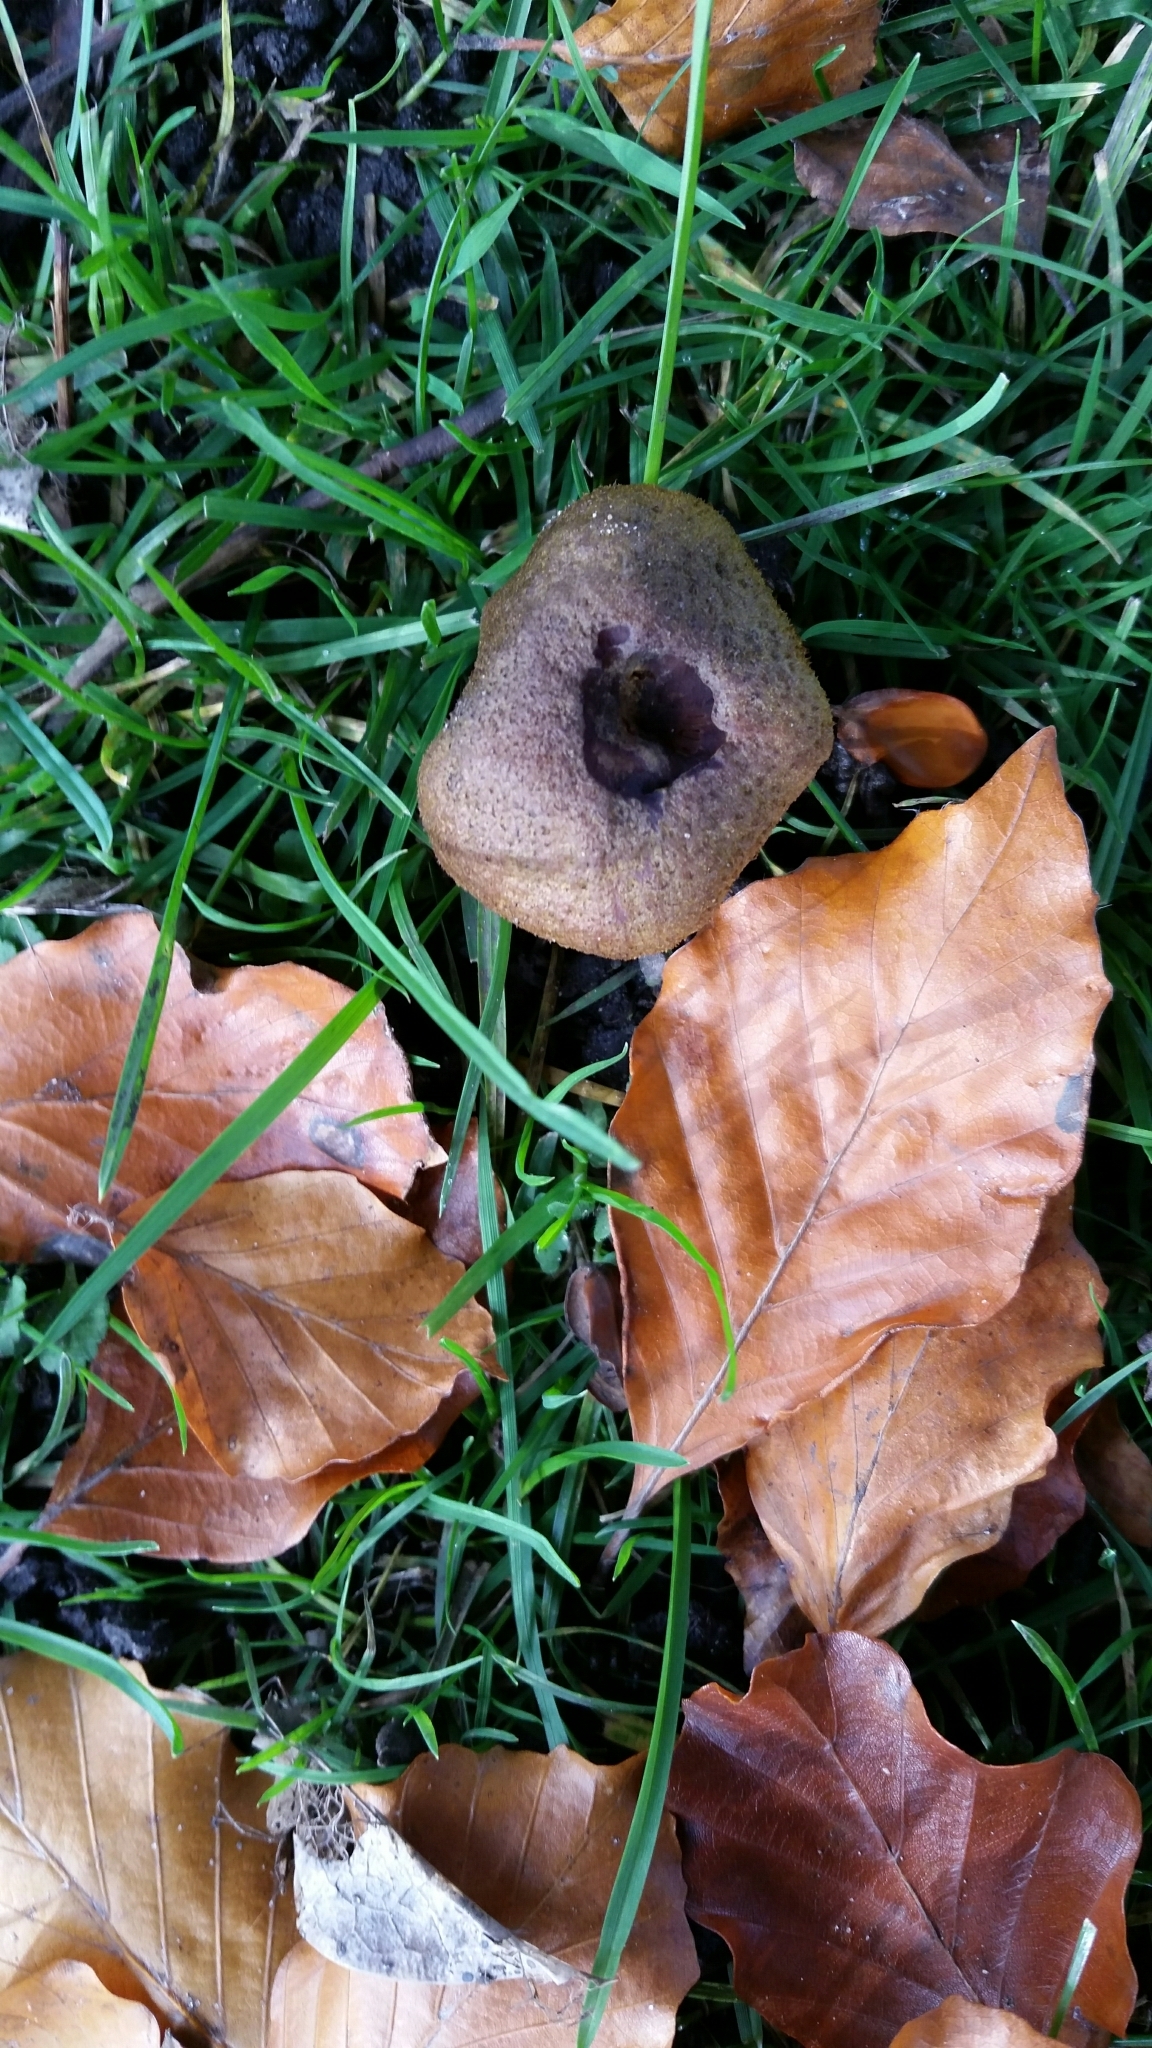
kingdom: Fungi
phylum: Basidiomycota
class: Agaricomycetes
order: Agaricales
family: Lycoperdaceae
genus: Lycoperdon
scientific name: Lycoperdon perlatum
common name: Common puffball
